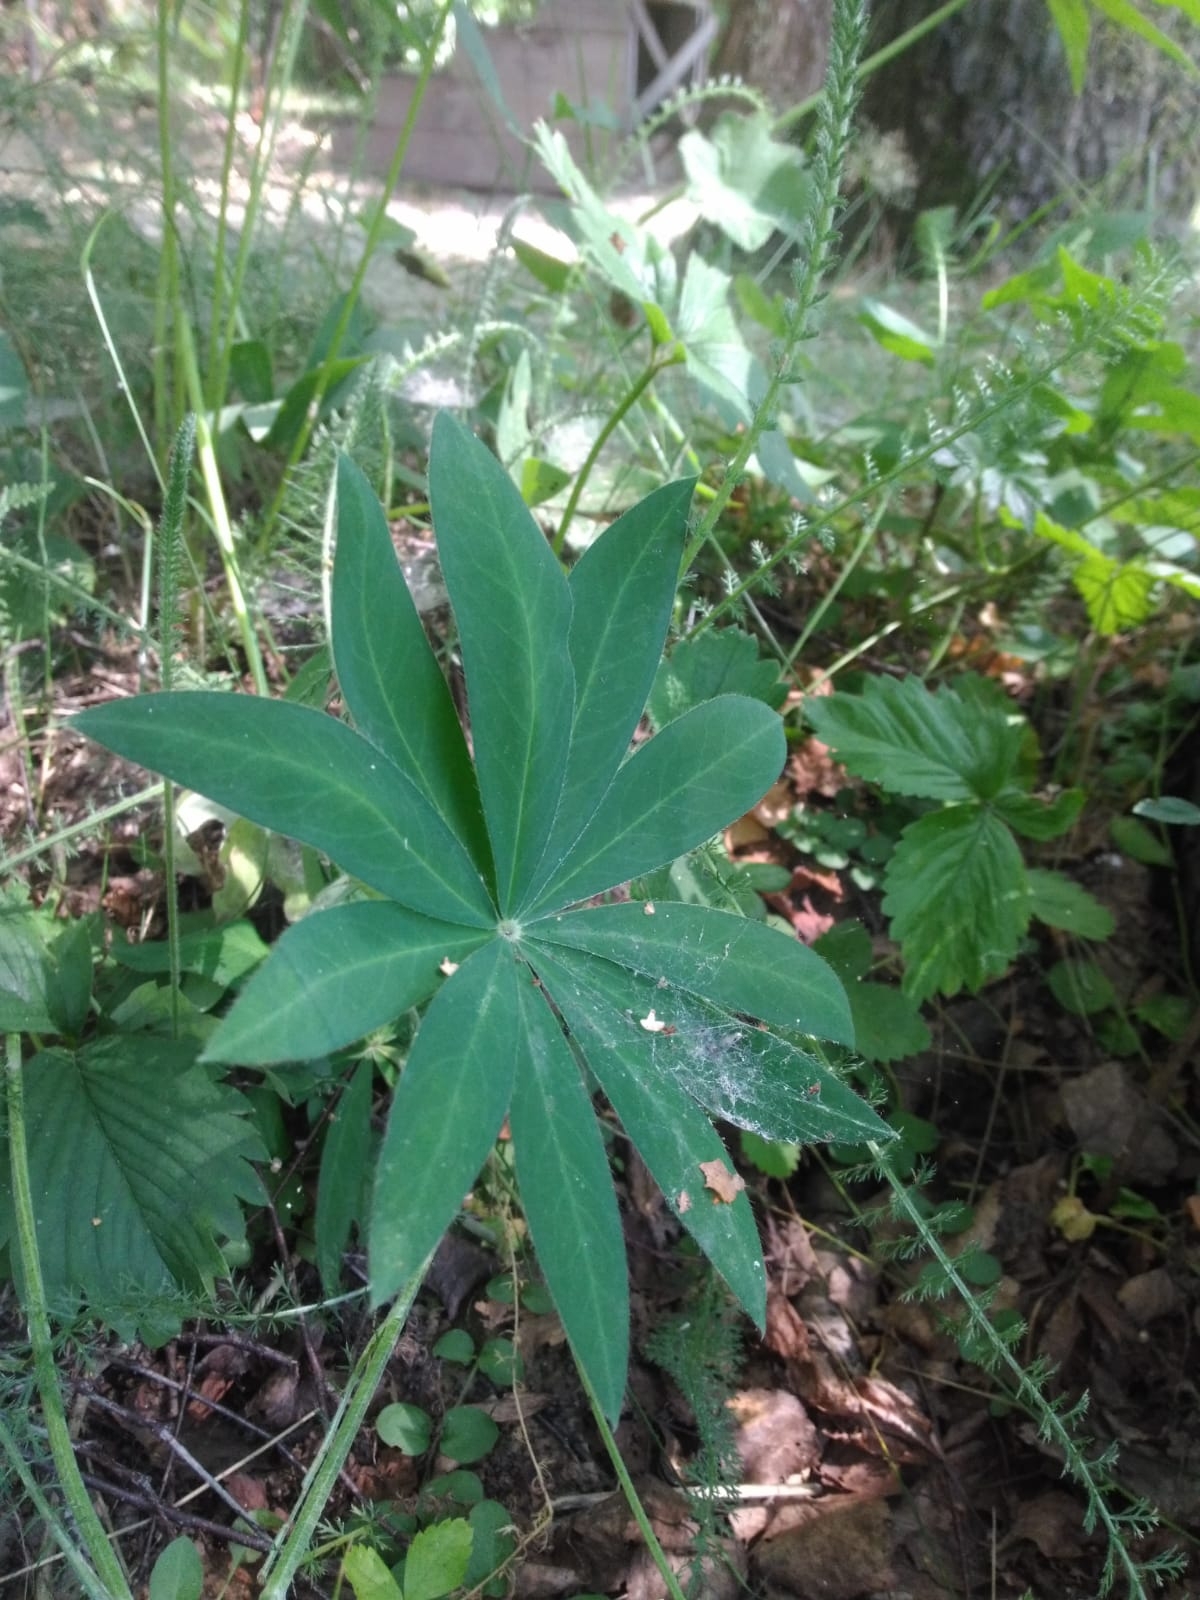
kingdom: Plantae
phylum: Tracheophyta
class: Magnoliopsida
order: Fabales
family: Fabaceae
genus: Lupinus
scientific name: Lupinus polyphyllus
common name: Garden lupin
